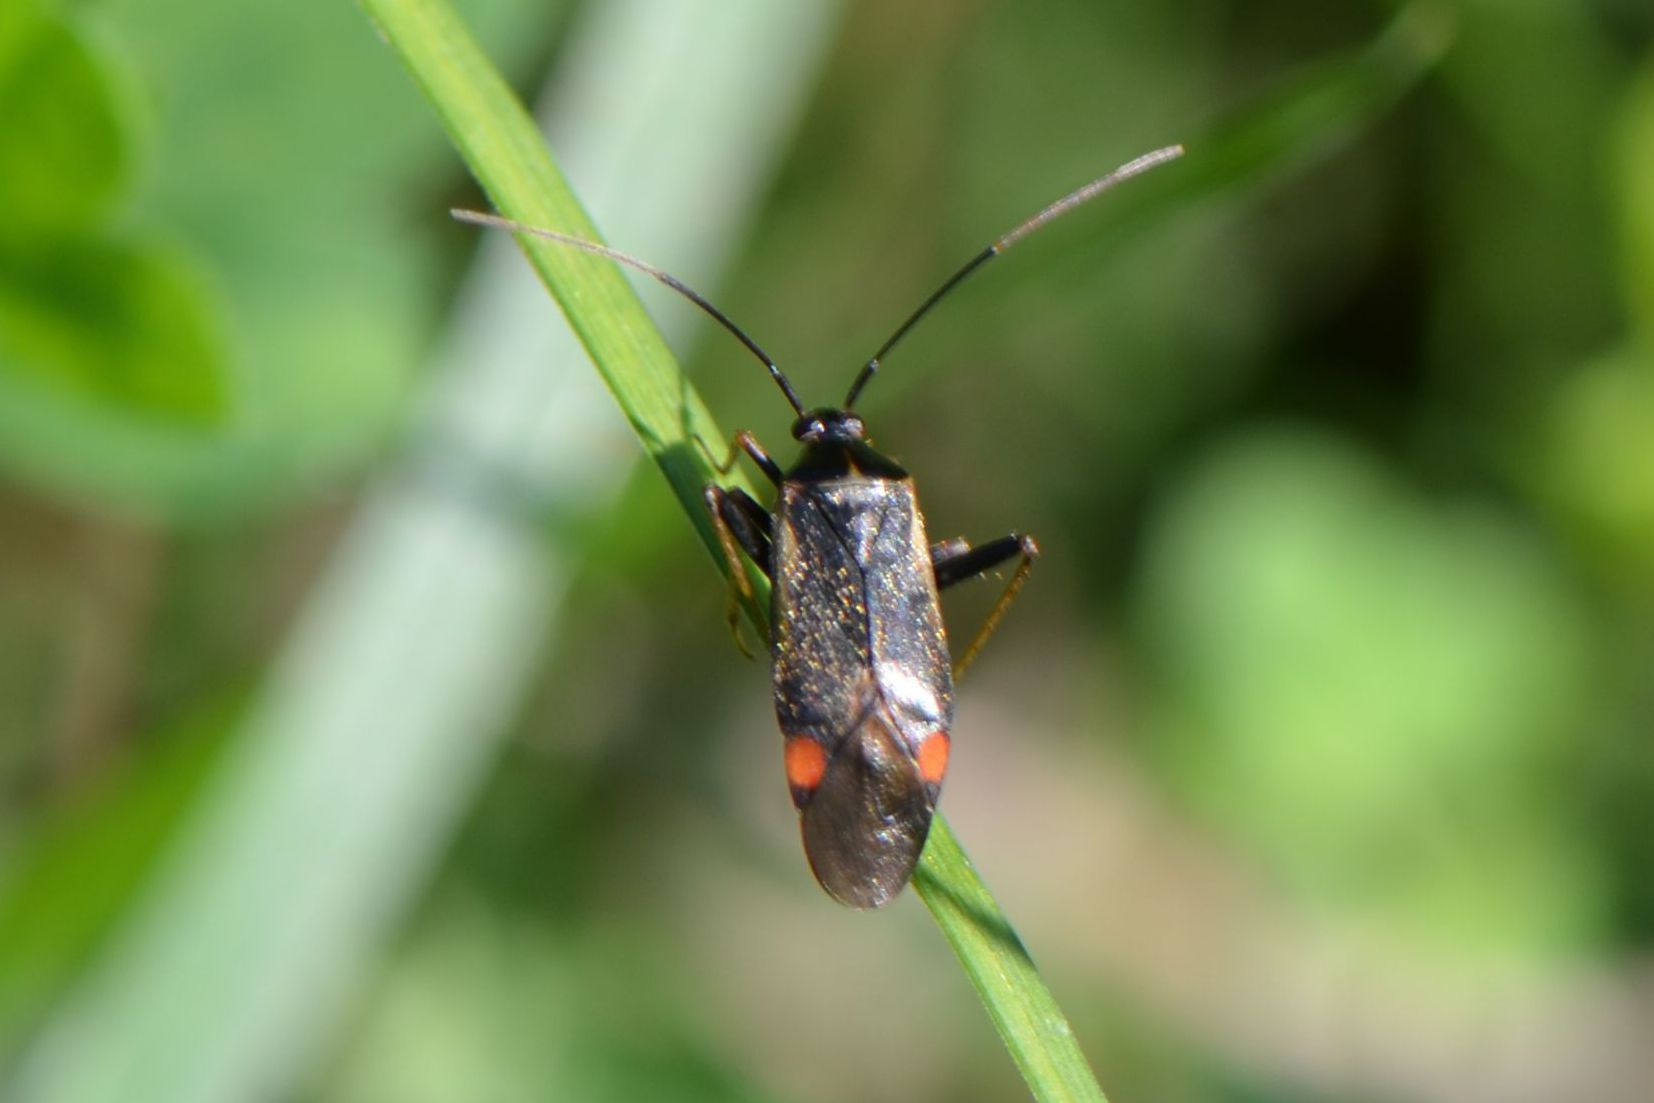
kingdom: Animalia
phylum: Arthropoda
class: Insecta
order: Hemiptera
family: Miridae
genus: Adelphocoris
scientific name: Adelphocoris seticornis
